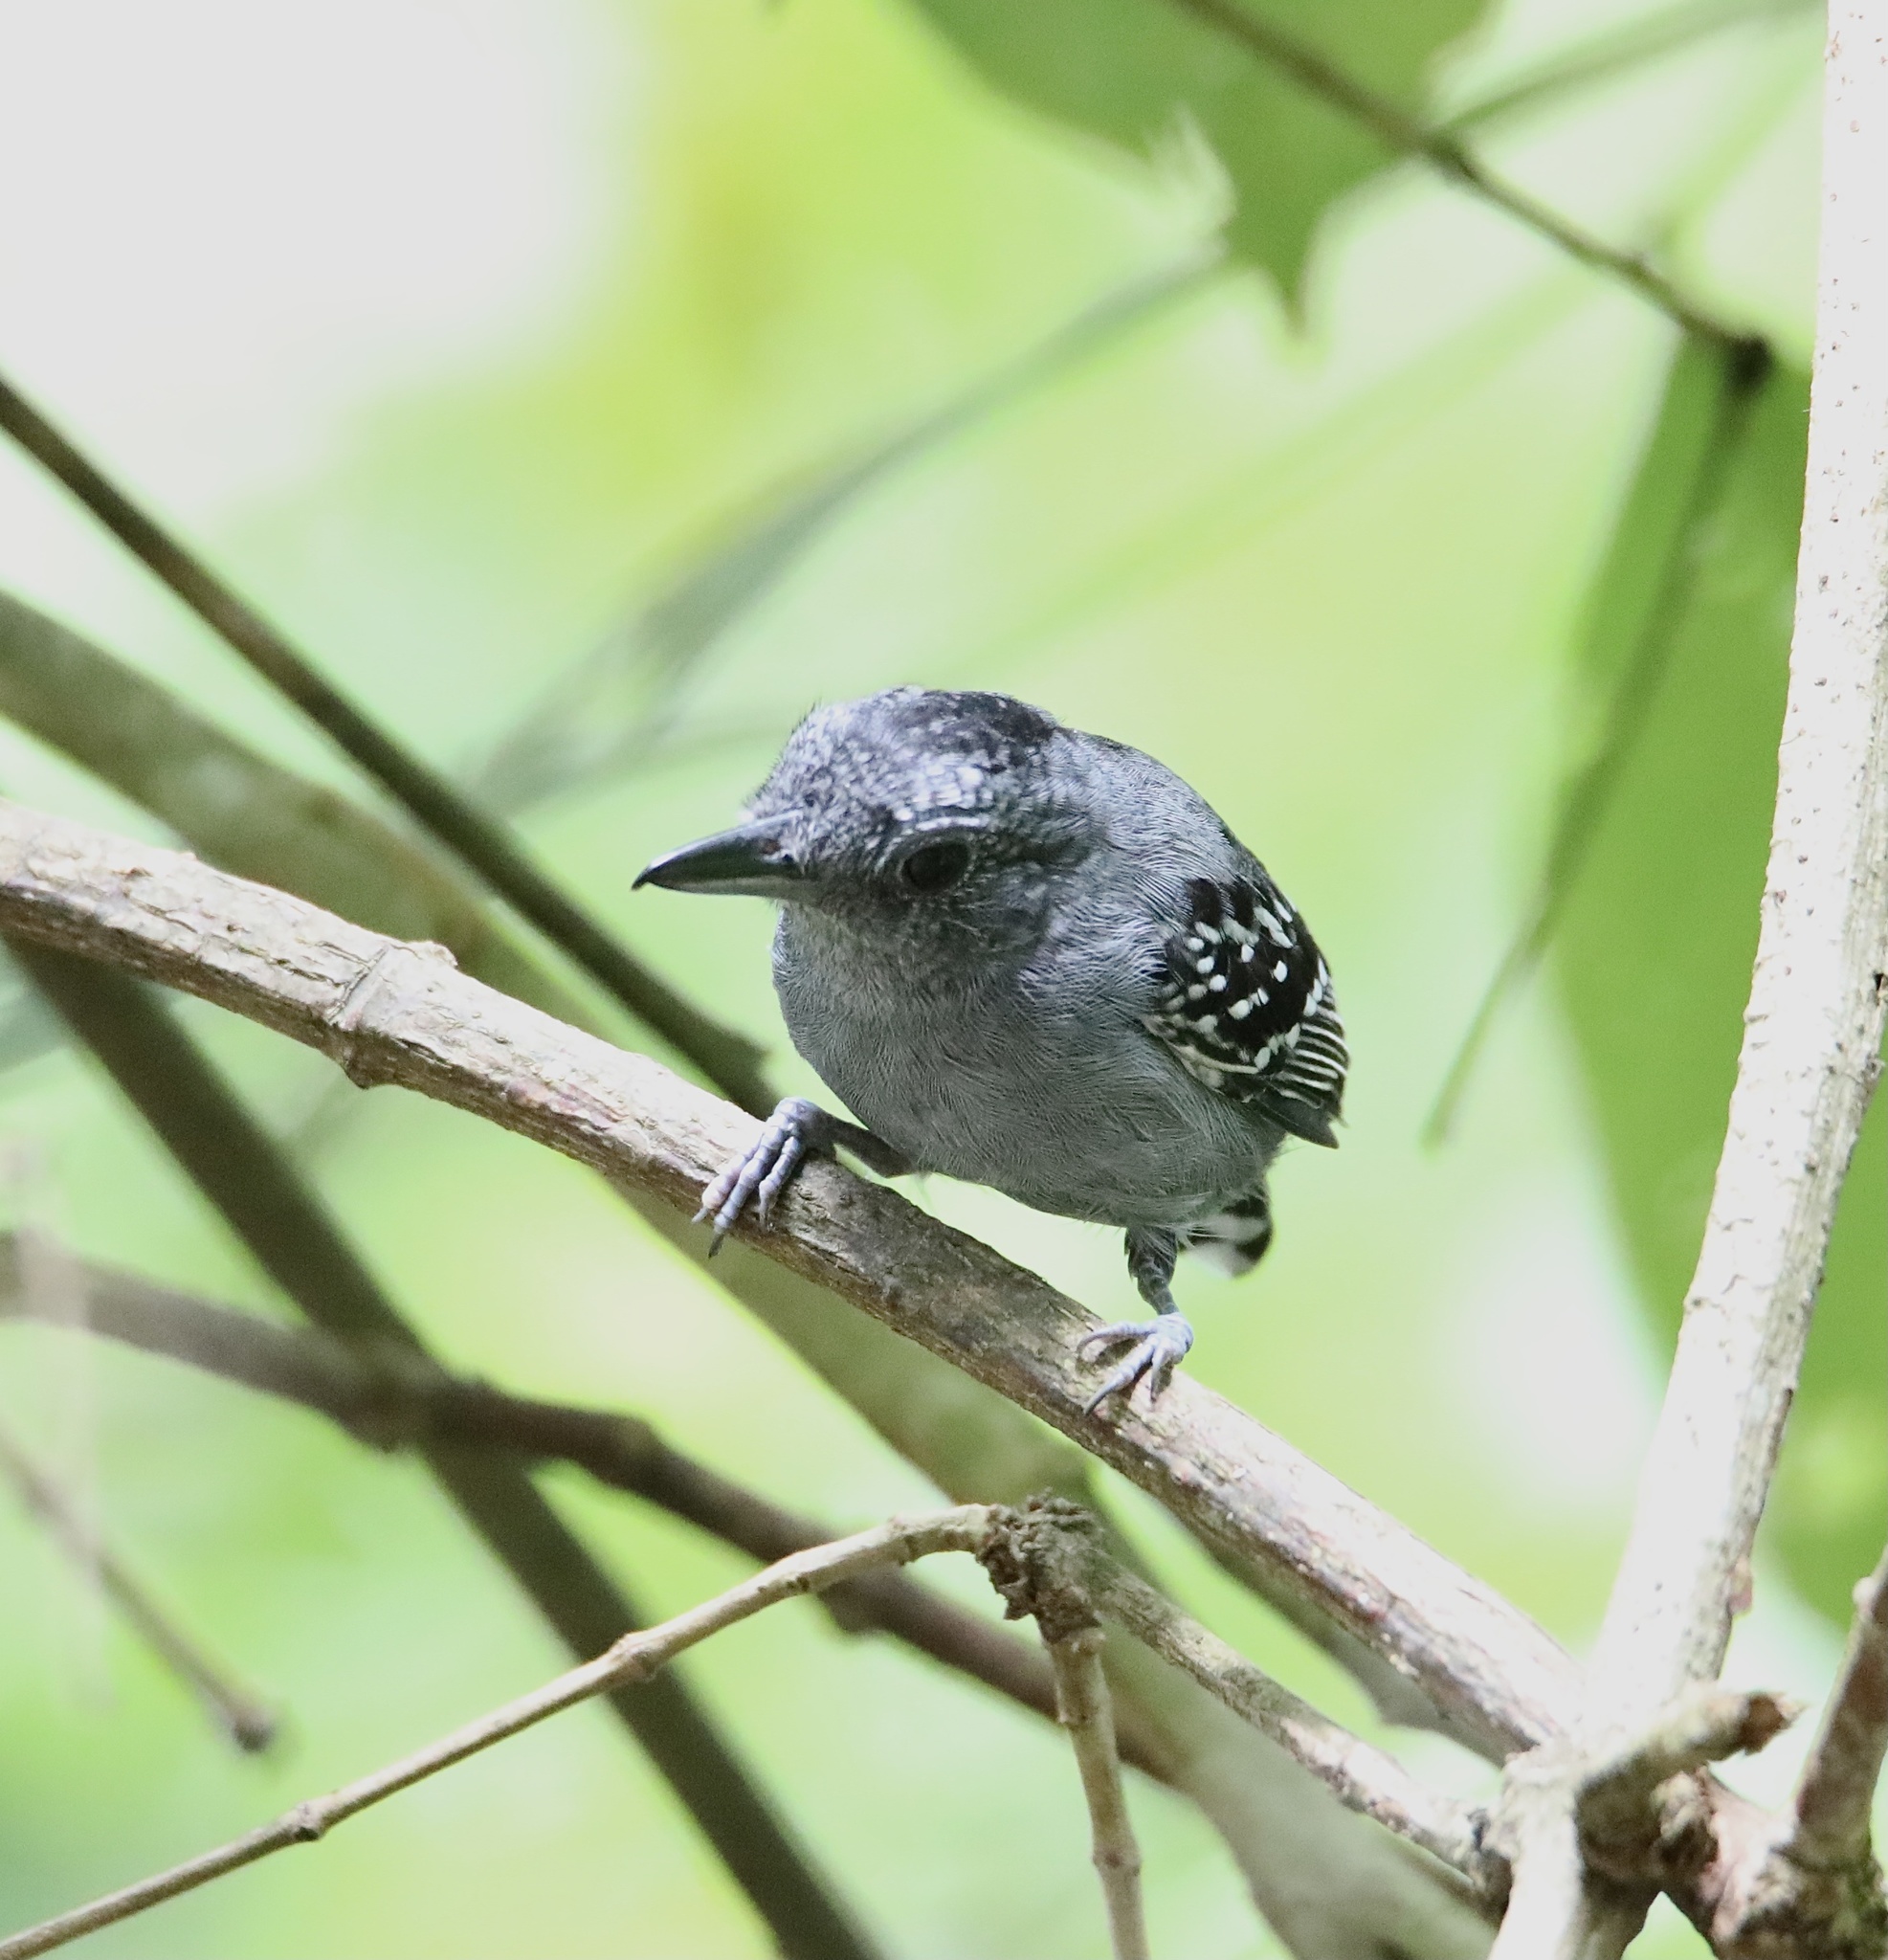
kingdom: Animalia
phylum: Chordata
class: Aves
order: Passeriformes
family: Thamnophilidae
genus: Thamnophilus
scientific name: Thamnophilus atrinucha
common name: Black-crowned antshrike
